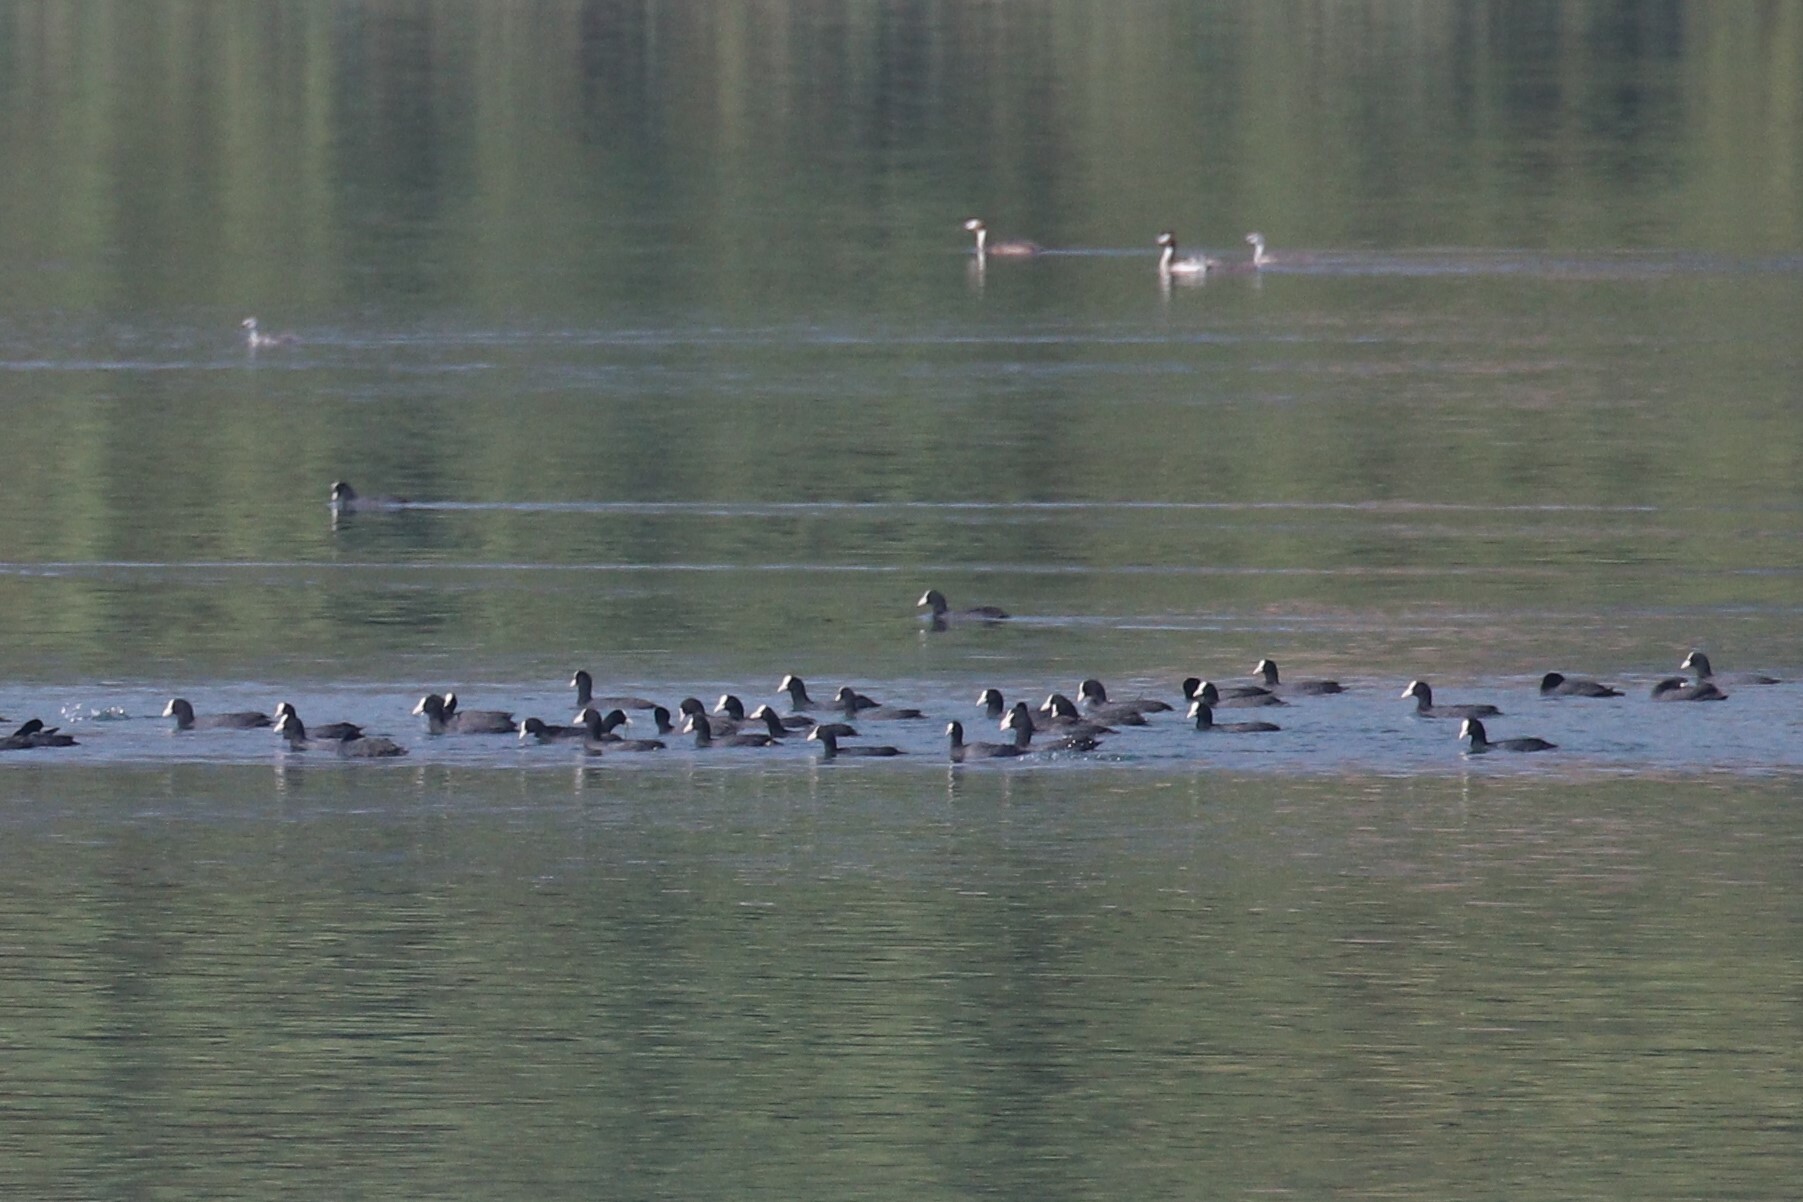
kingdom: Animalia
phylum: Chordata
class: Aves
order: Gruiformes
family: Rallidae
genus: Fulica
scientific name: Fulica atra
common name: Eurasian coot
